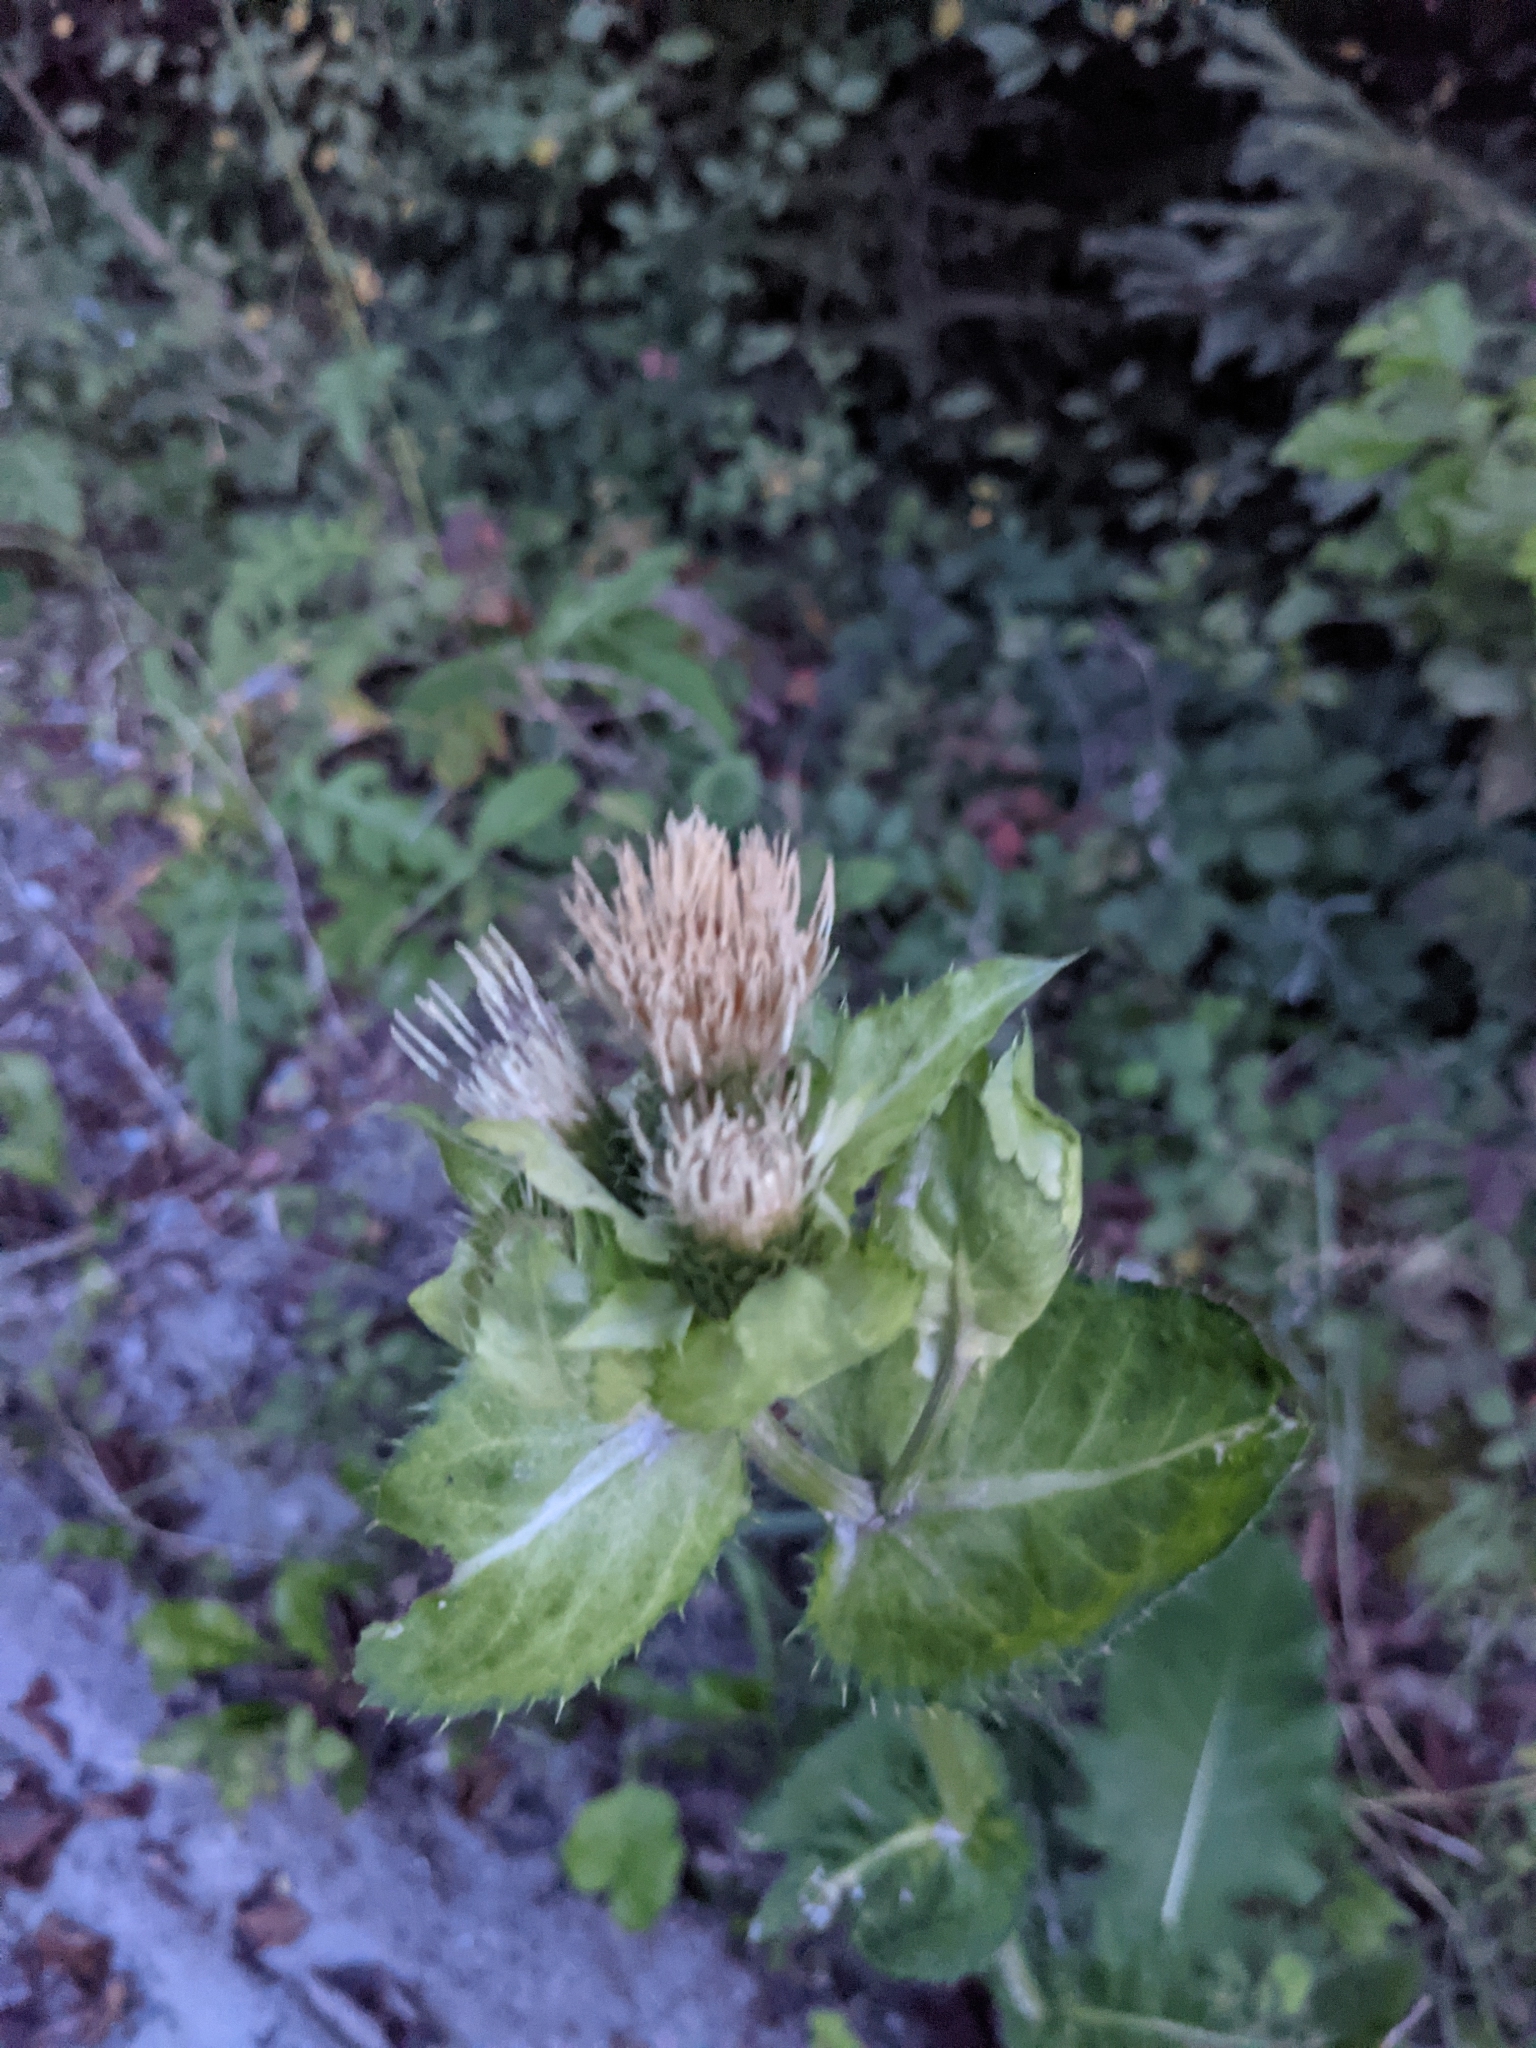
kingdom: Plantae
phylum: Tracheophyta
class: Magnoliopsida
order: Asterales
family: Asteraceae
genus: Cirsium
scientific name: Cirsium oleraceum
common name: Cabbage thistle
